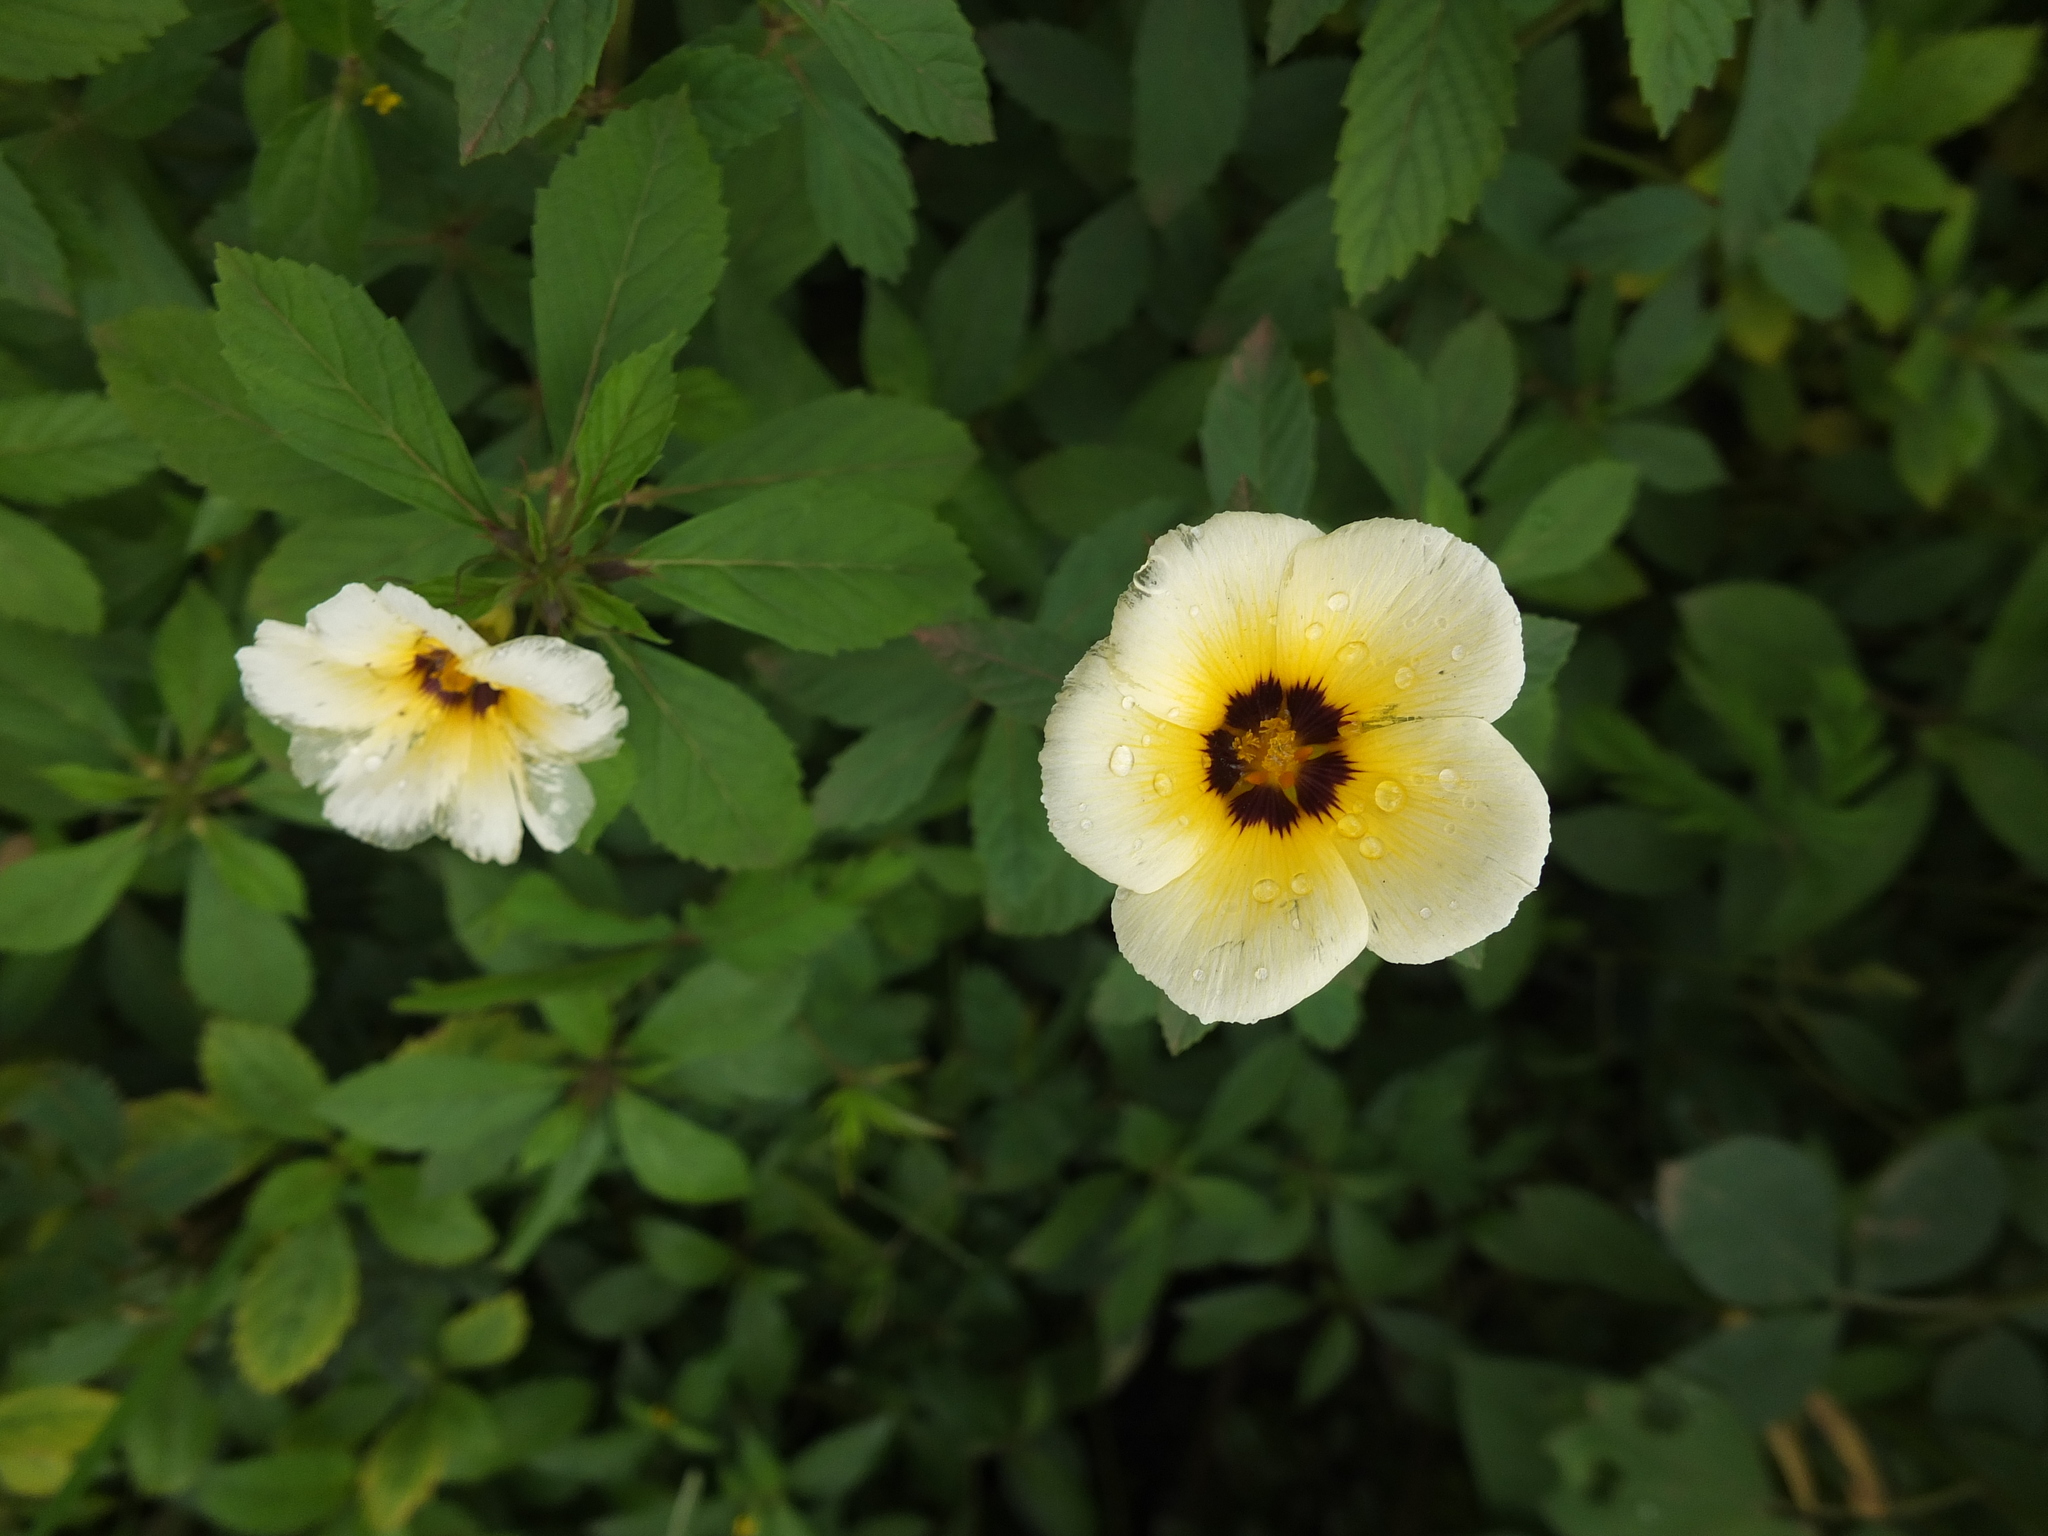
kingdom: Plantae
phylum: Tracheophyta
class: Magnoliopsida
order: Malpighiales
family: Turneraceae
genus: Turnera
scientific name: Turnera subulata
